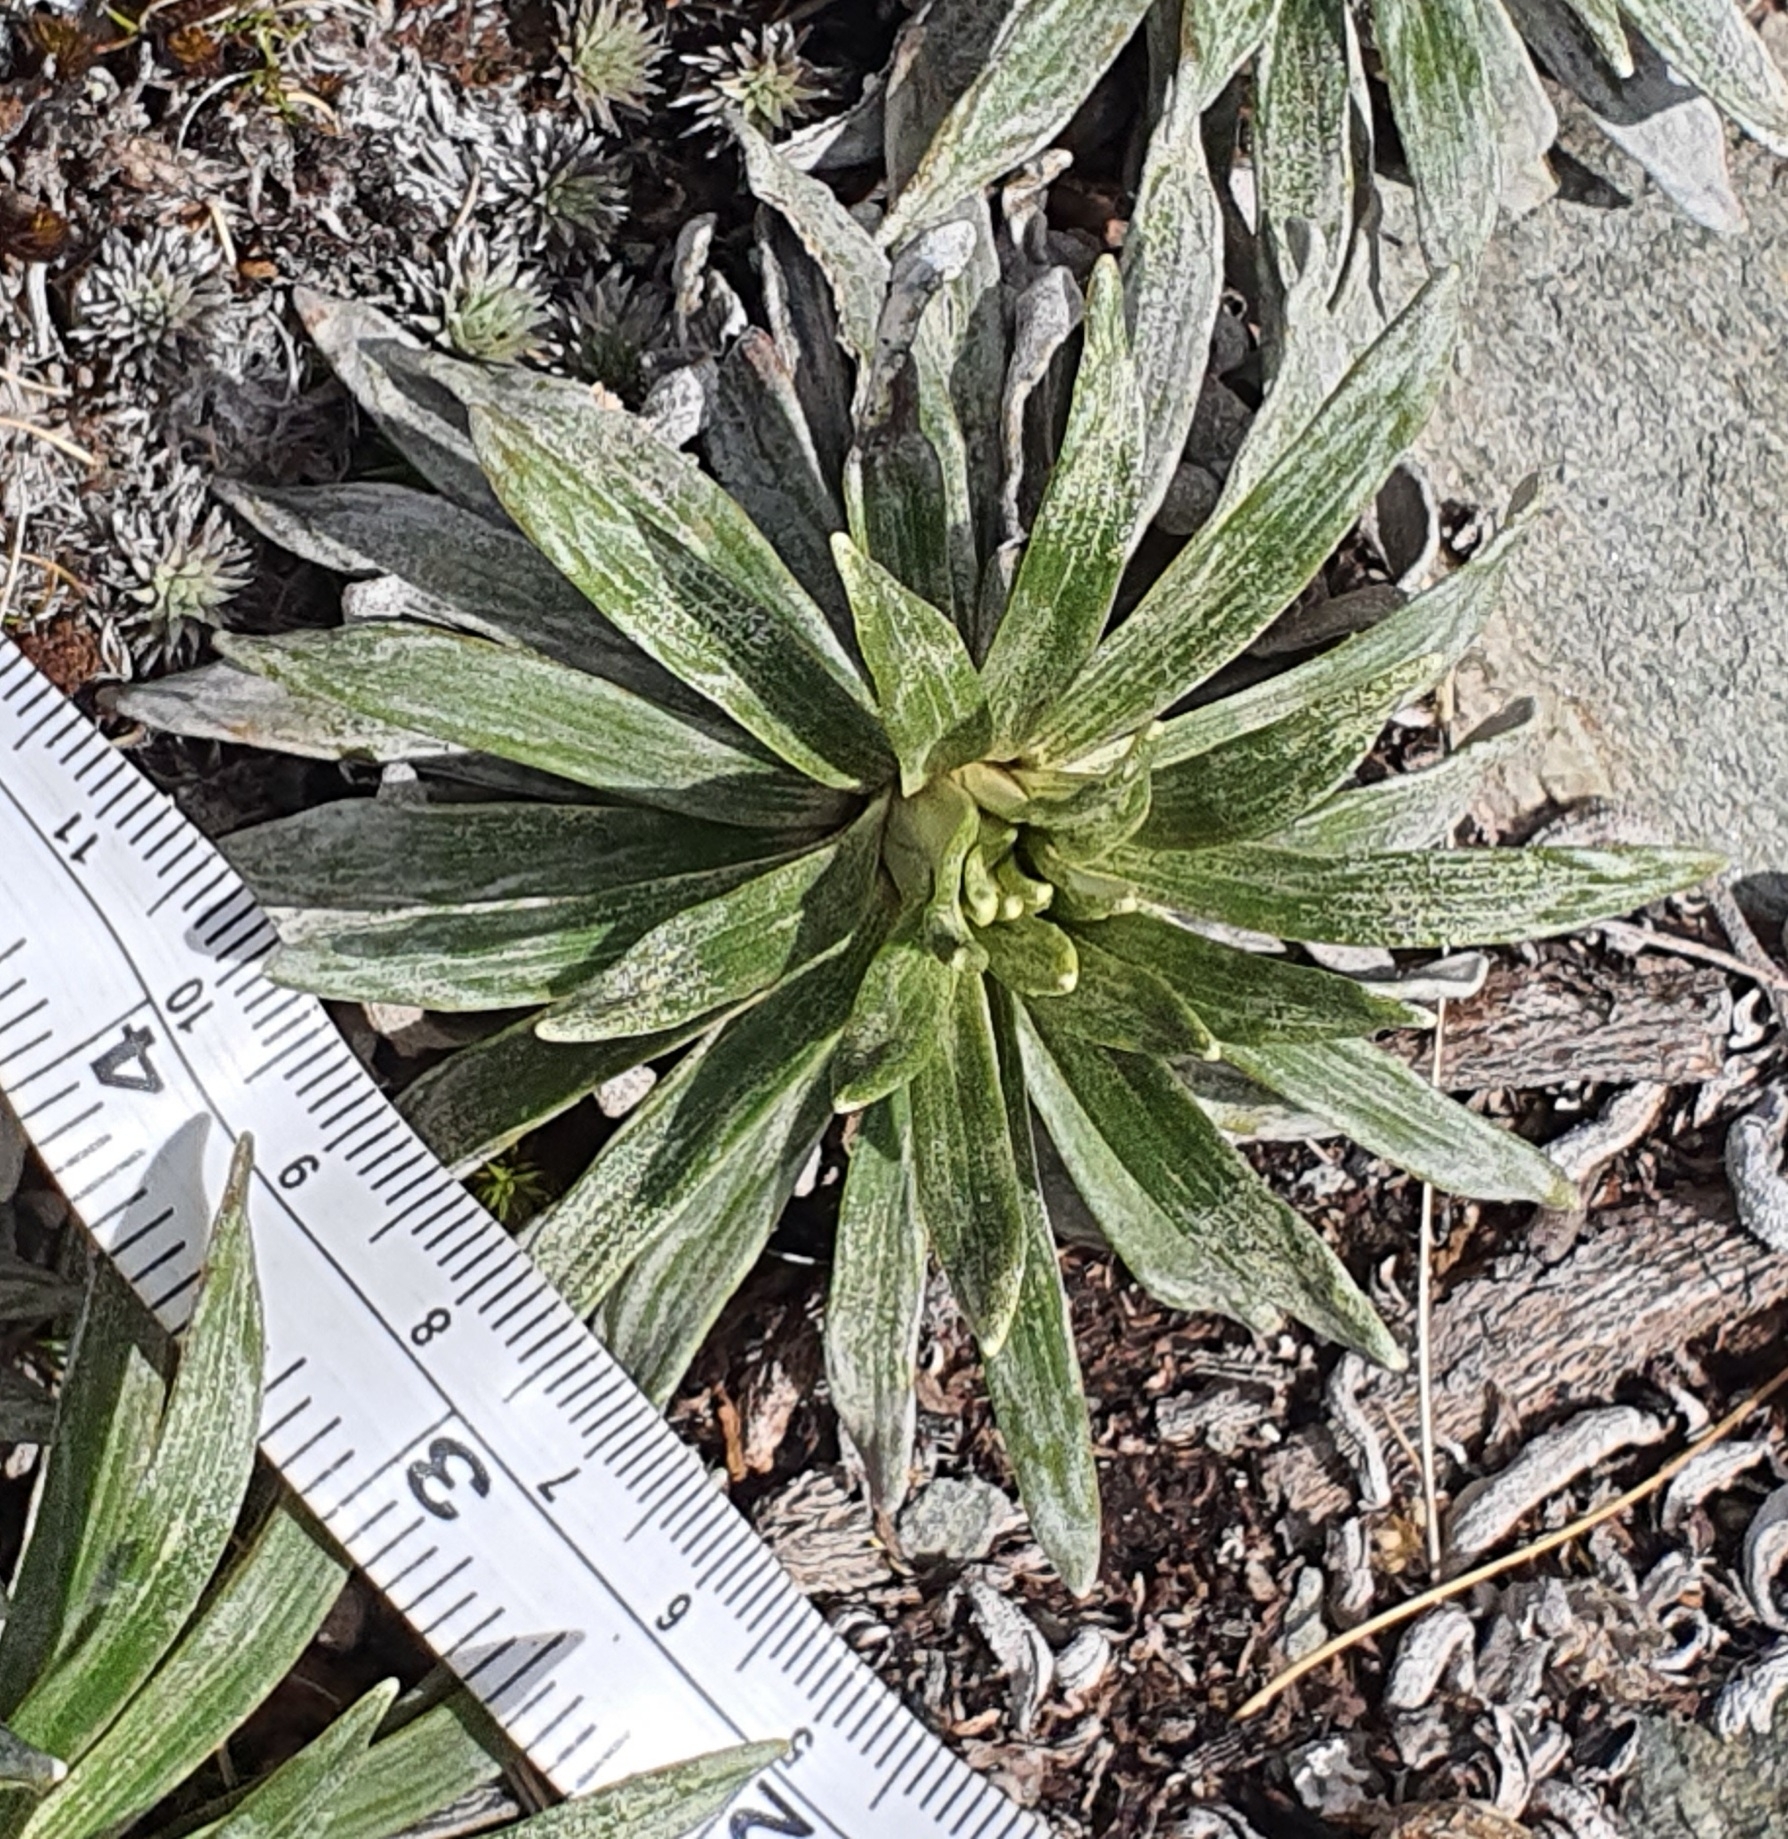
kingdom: Plantae
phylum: Tracheophyta
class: Magnoliopsida
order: Asterales
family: Asteraceae
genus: Celmisia
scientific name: Celmisia viscosa
